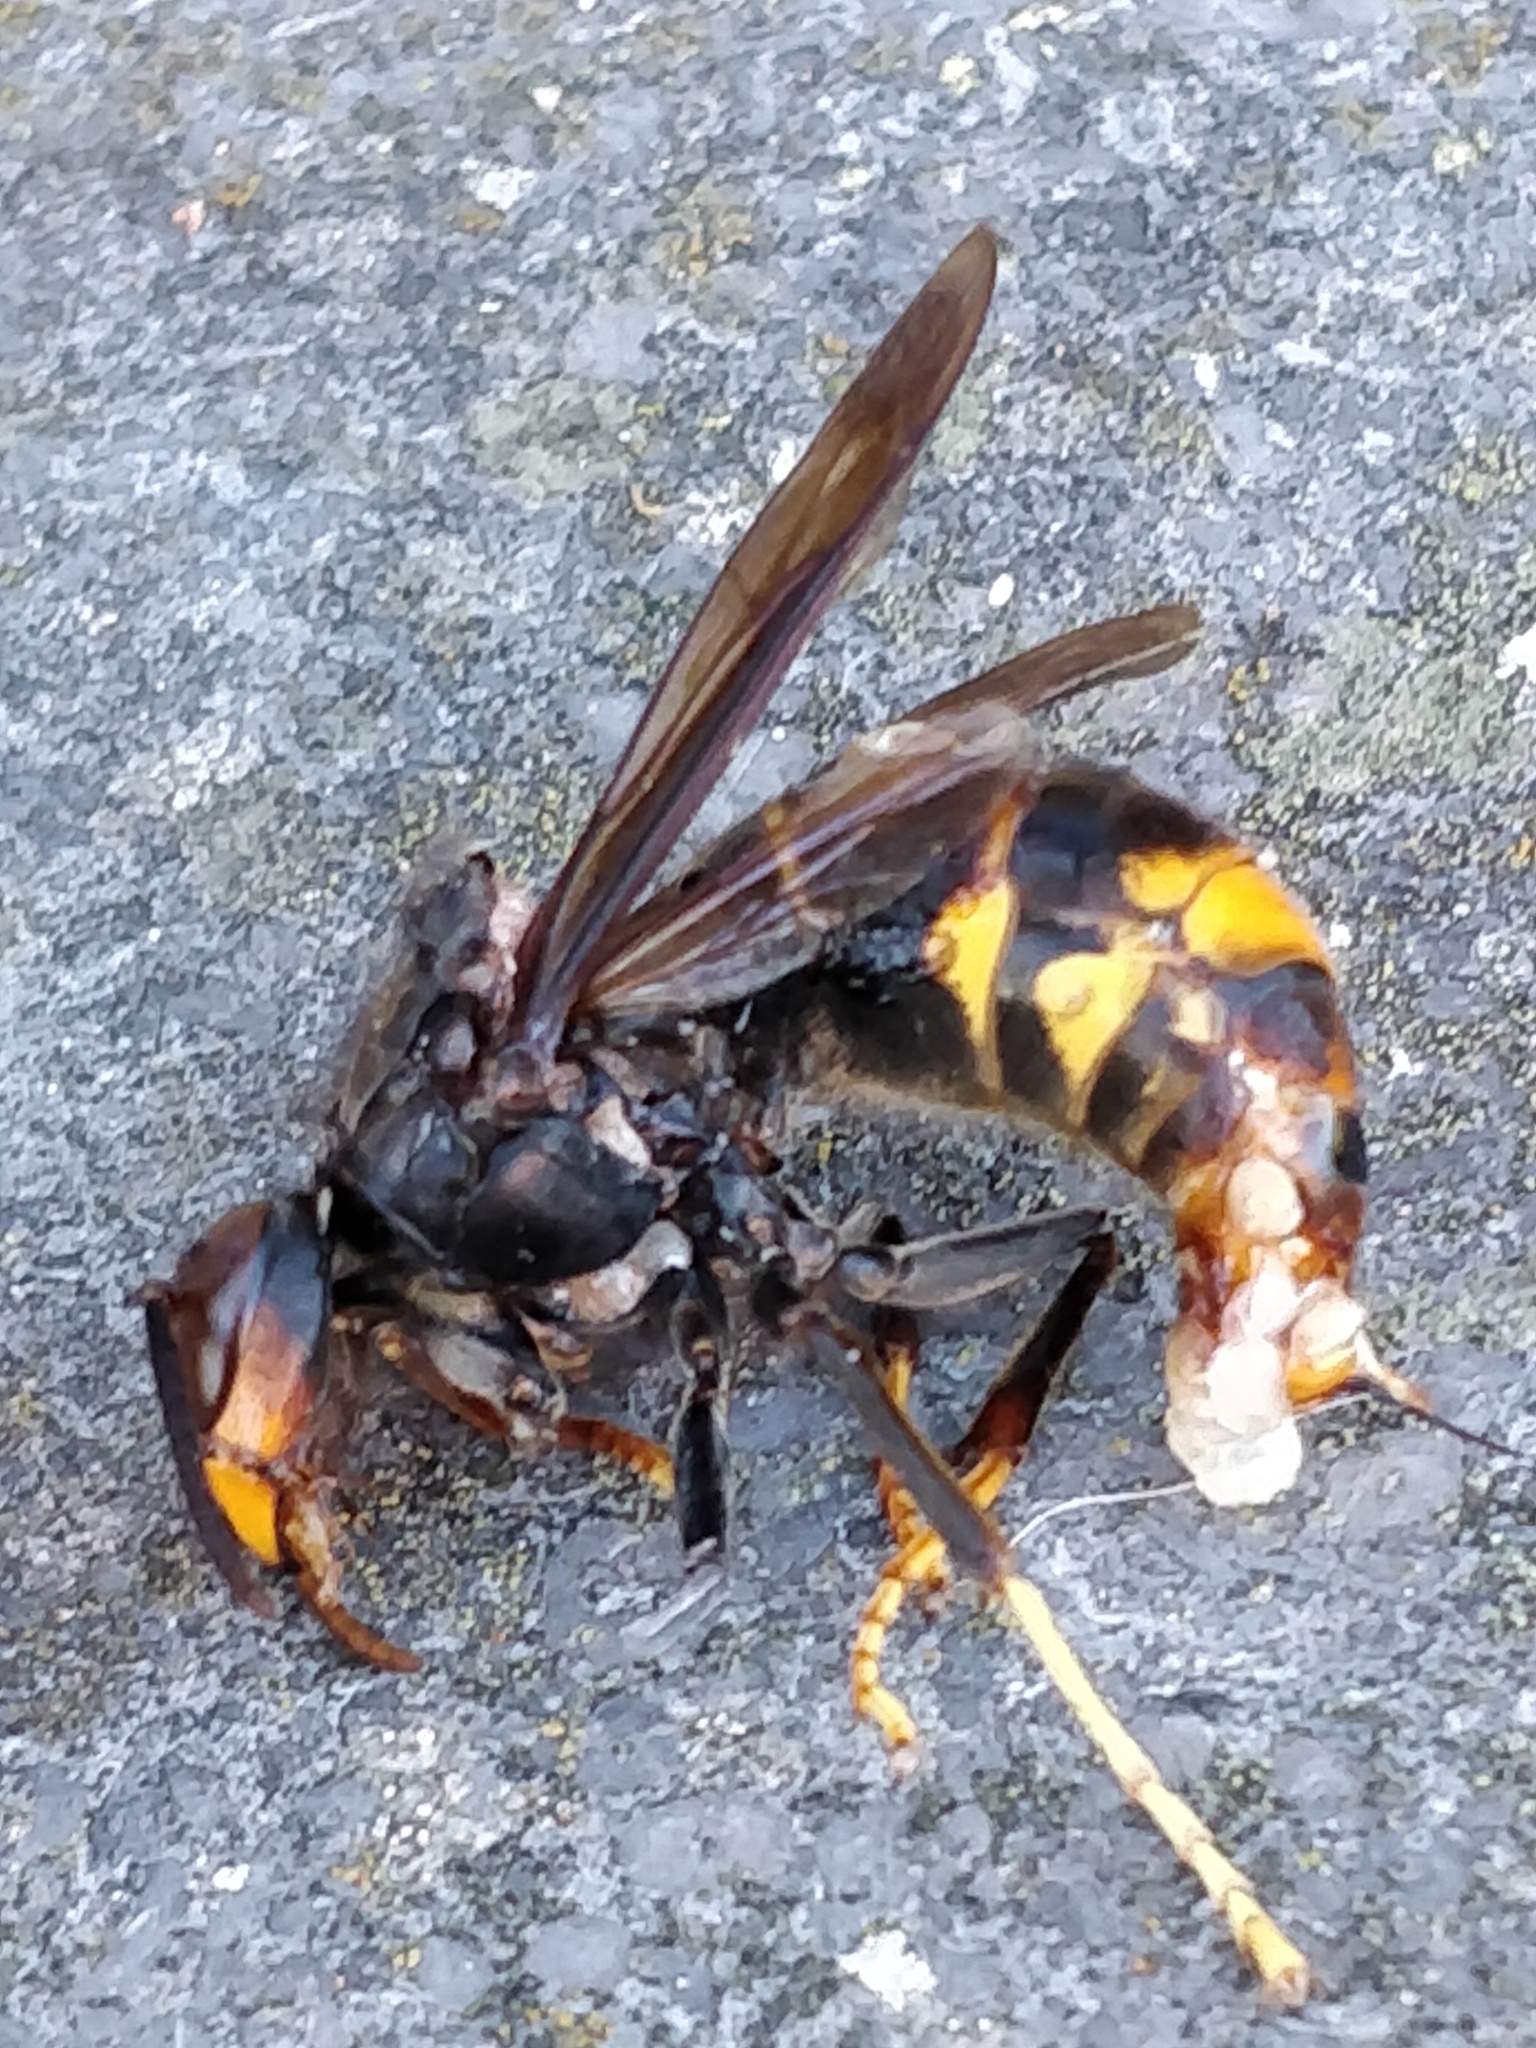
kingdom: Animalia
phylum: Arthropoda
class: Insecta
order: Hymenoptera
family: Vespidae
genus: Vespa
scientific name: Vespa velutina
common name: Asian hornet
